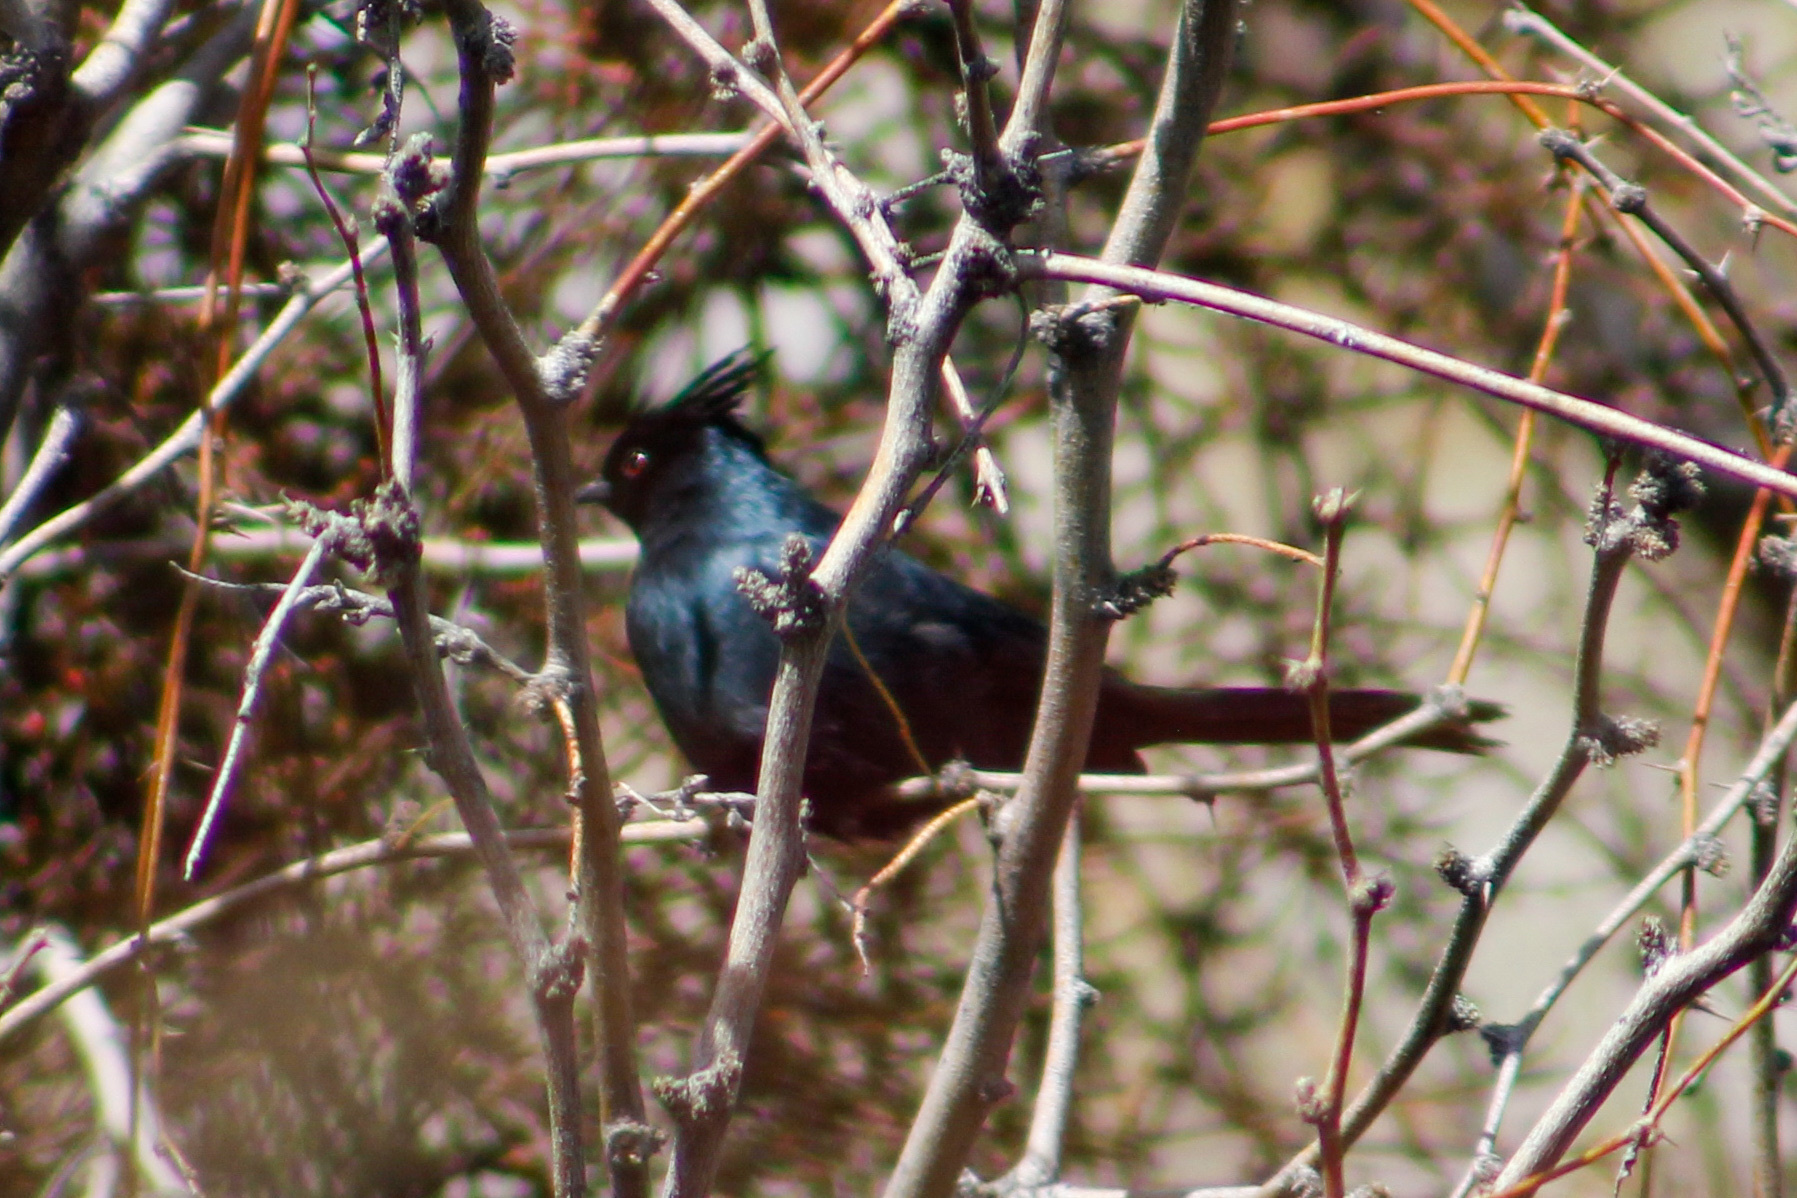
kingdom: Animalia
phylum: Chordata
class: Aves
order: Passeriformes
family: Ptilogonatidae
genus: Phainopepla
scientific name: Phainopepla nitens
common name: Phainopepla
